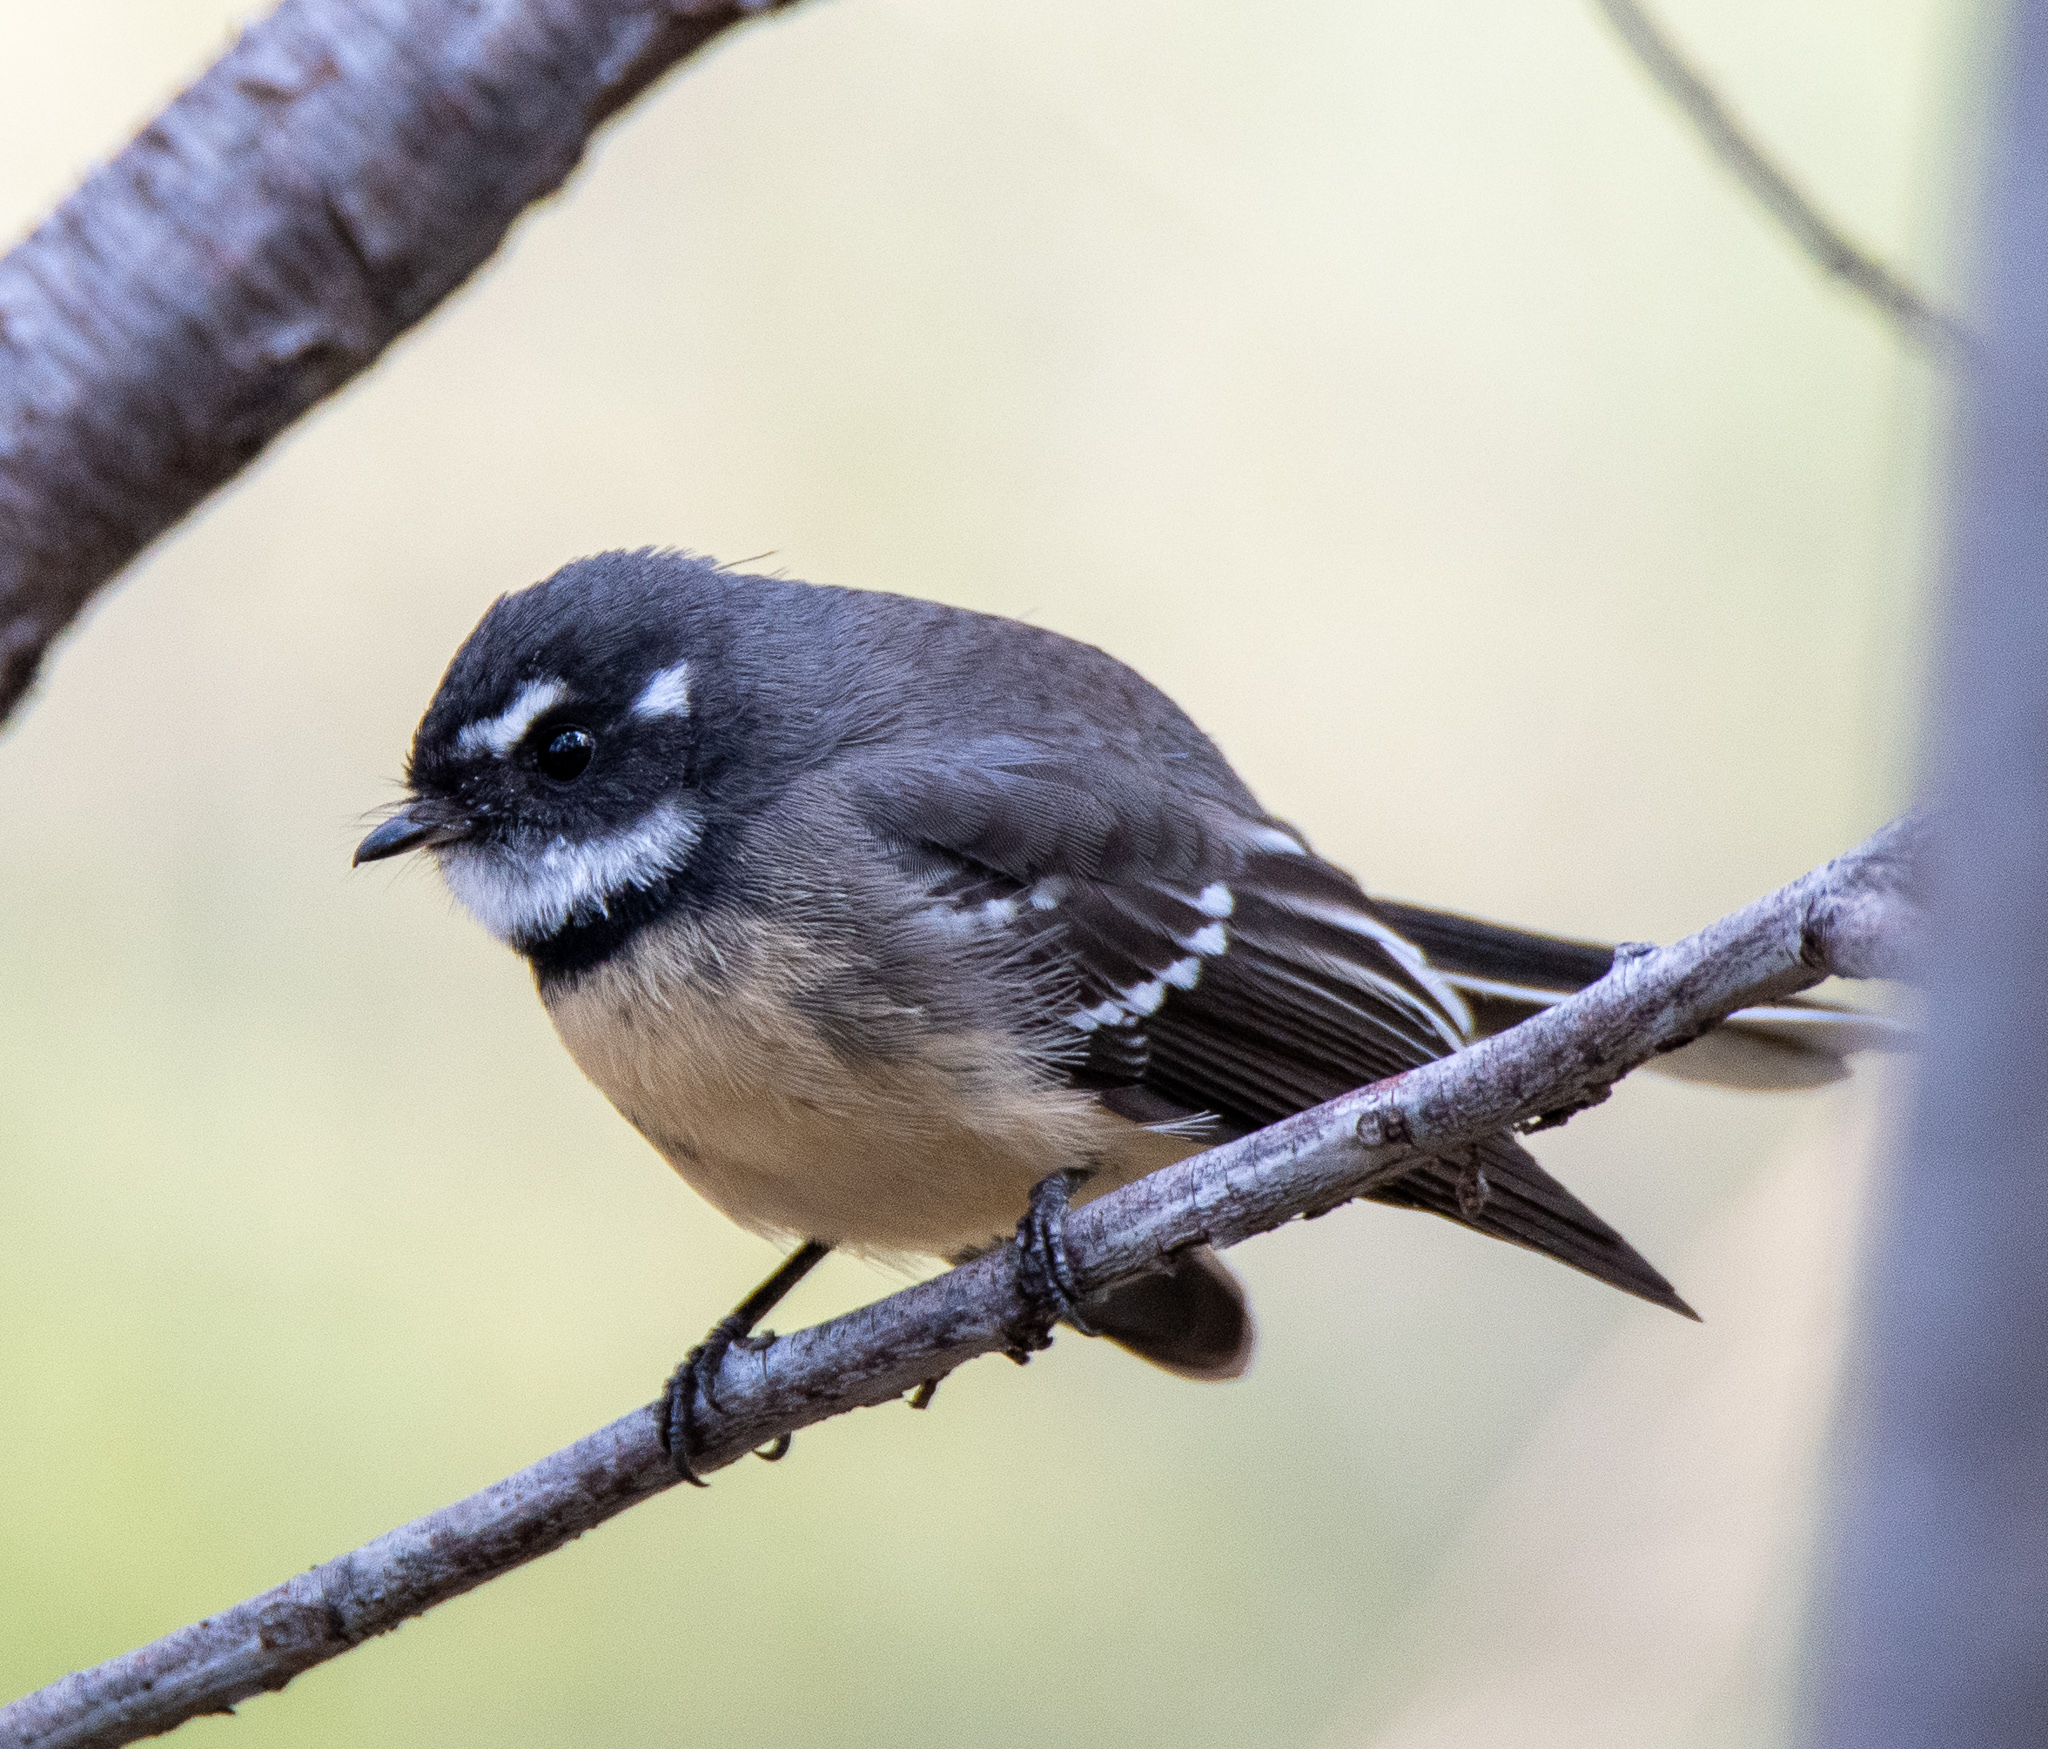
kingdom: Animalia
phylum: Chordata
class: Aves
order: Passeriformes
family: Rhipiduridae
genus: Rhipidura
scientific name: Rhipidura albiscapa
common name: Grey fantail
